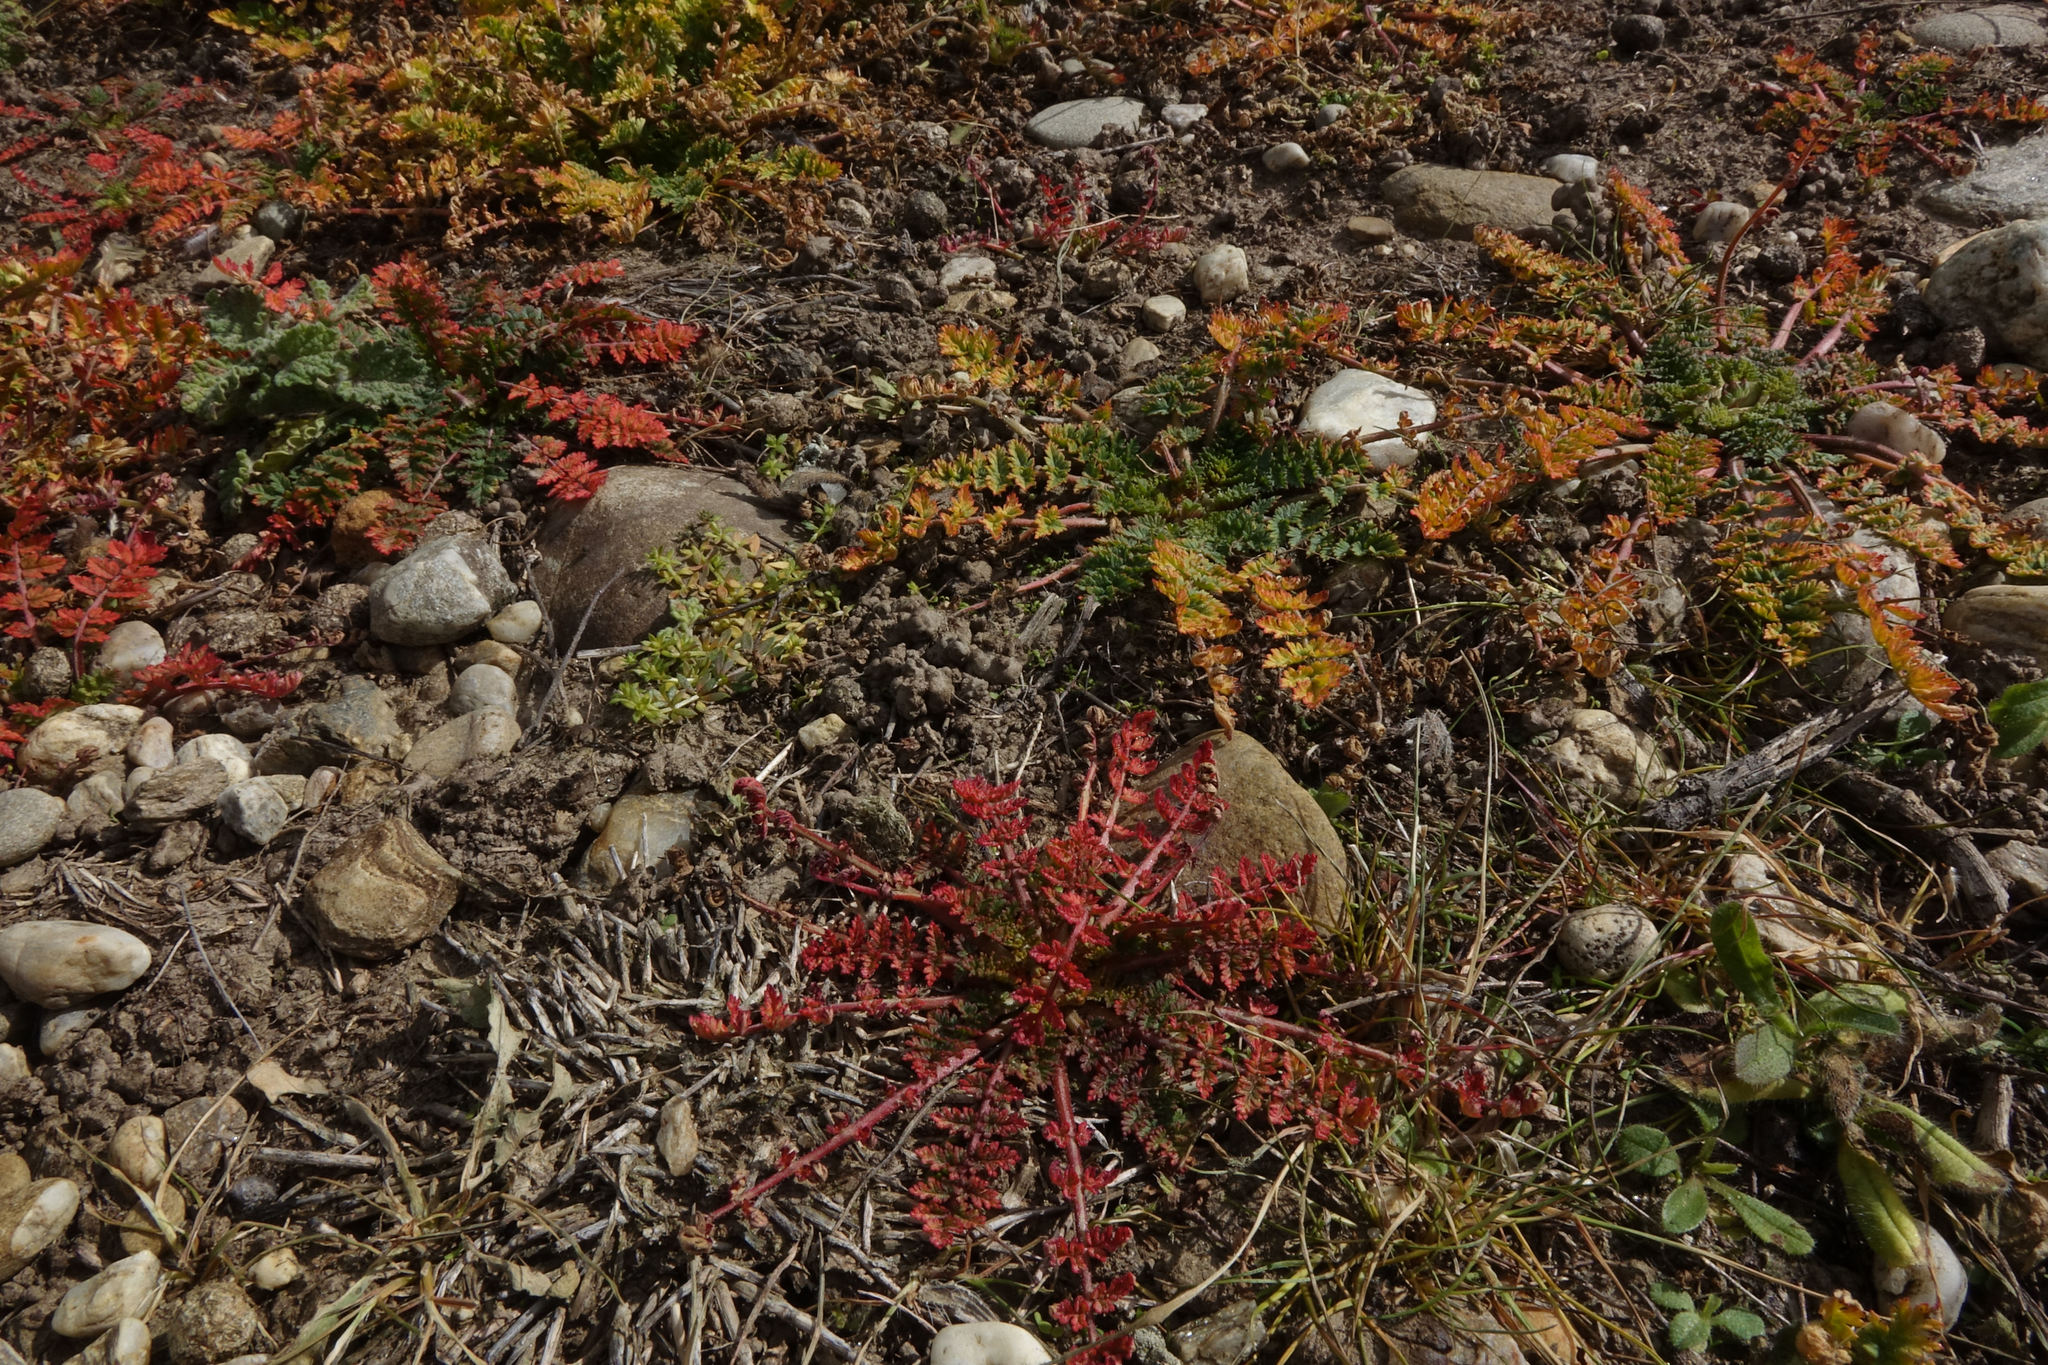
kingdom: Plantae
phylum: Tracheophyta
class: Magnoliopsida
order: Geraniales
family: Geraniaceae
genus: Erodium
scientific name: Erodium cicutarium
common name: Common stork's-bill
